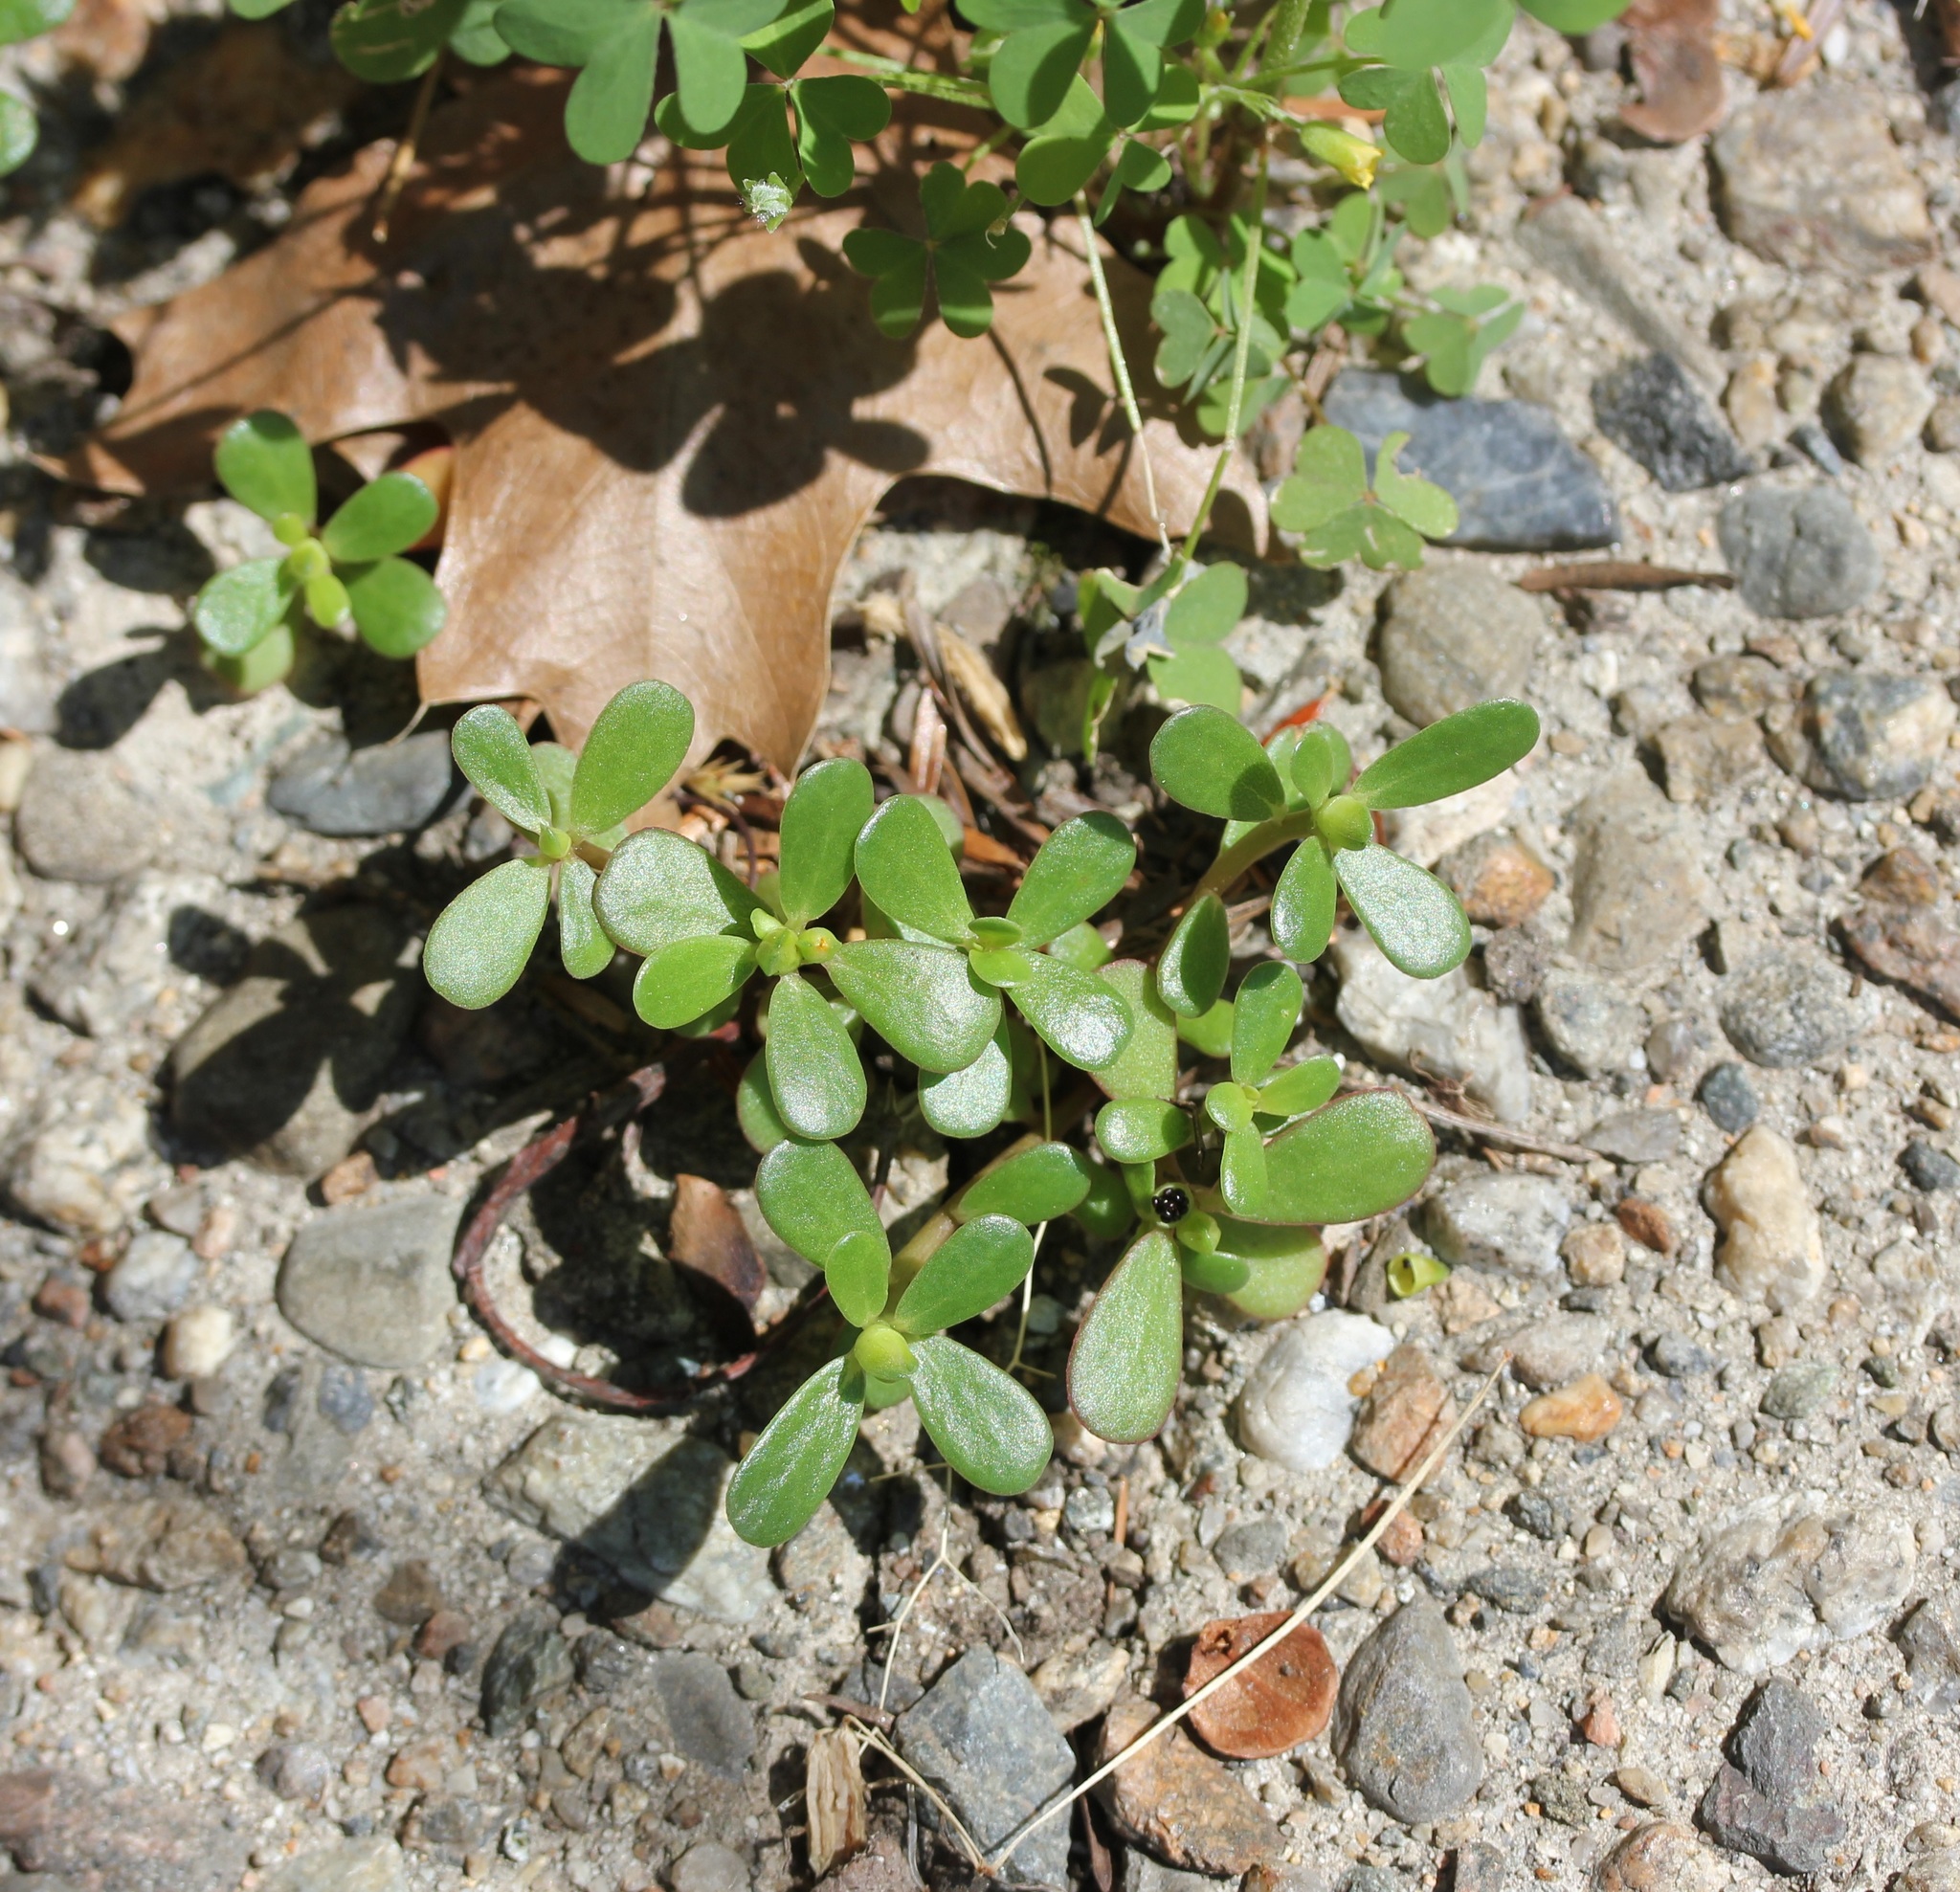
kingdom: Plantae
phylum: Tracheophyta
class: Magnoliopsida
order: Caryophyllales
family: Portulacaceae
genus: Portulaca
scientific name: Portulaca oleracea
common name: Common purslane
